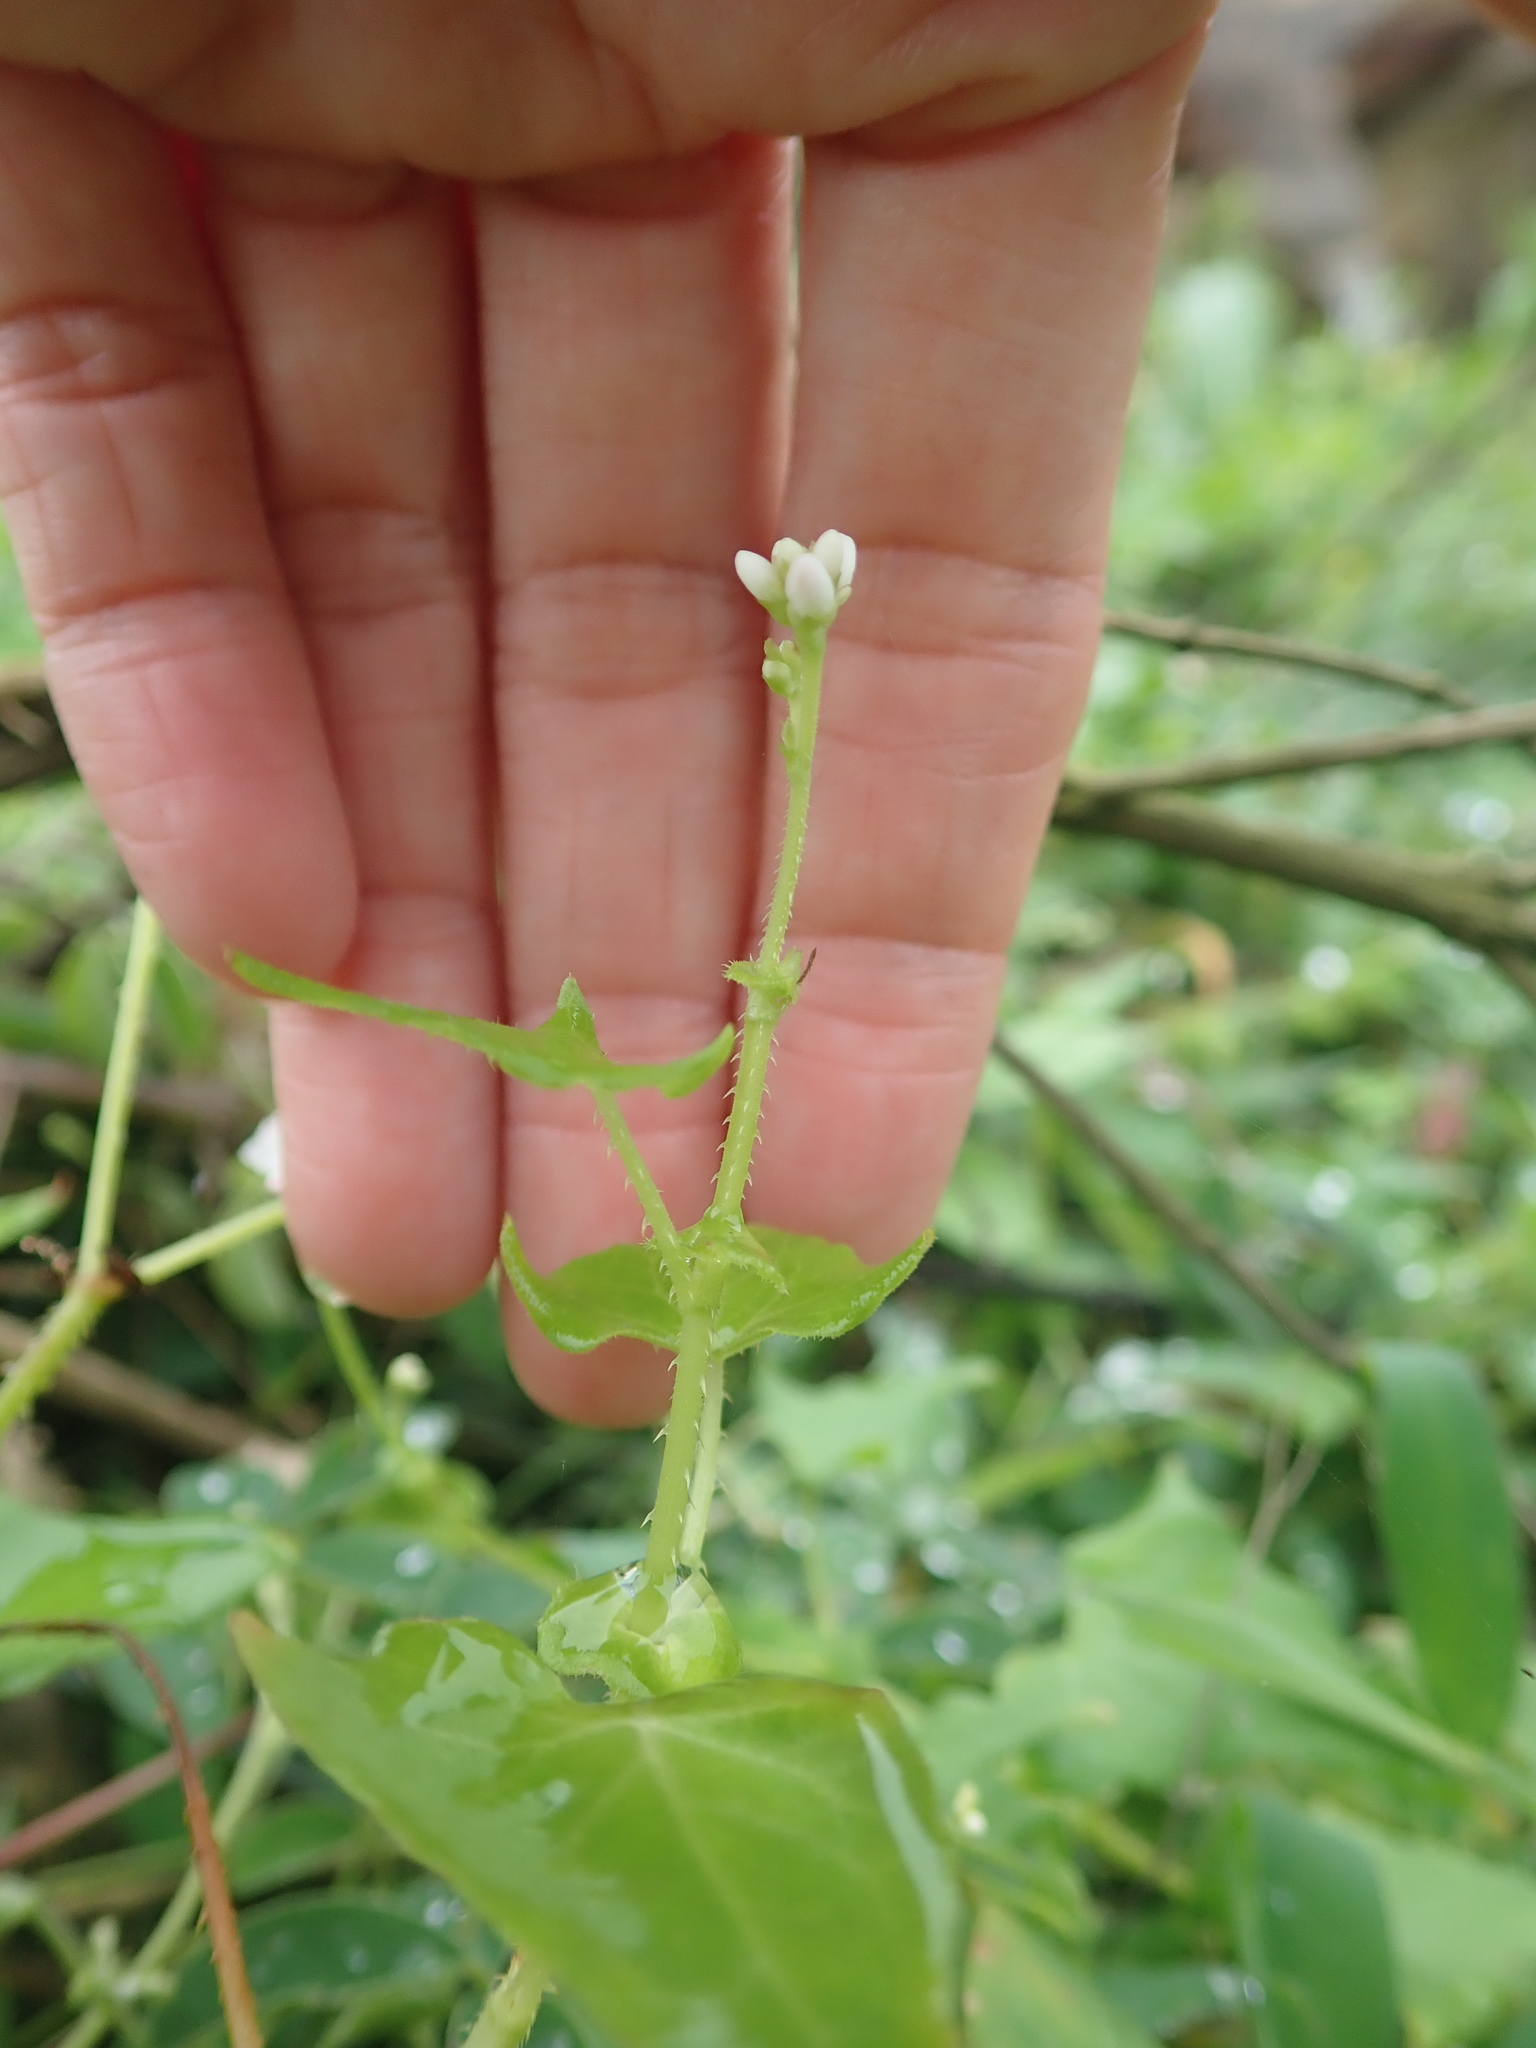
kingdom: Plantae
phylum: Tracheophyta
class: Magnoliopsida
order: Caryophyllales
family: Polygonaceae
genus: Persicaria
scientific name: Persicaria senticosa
